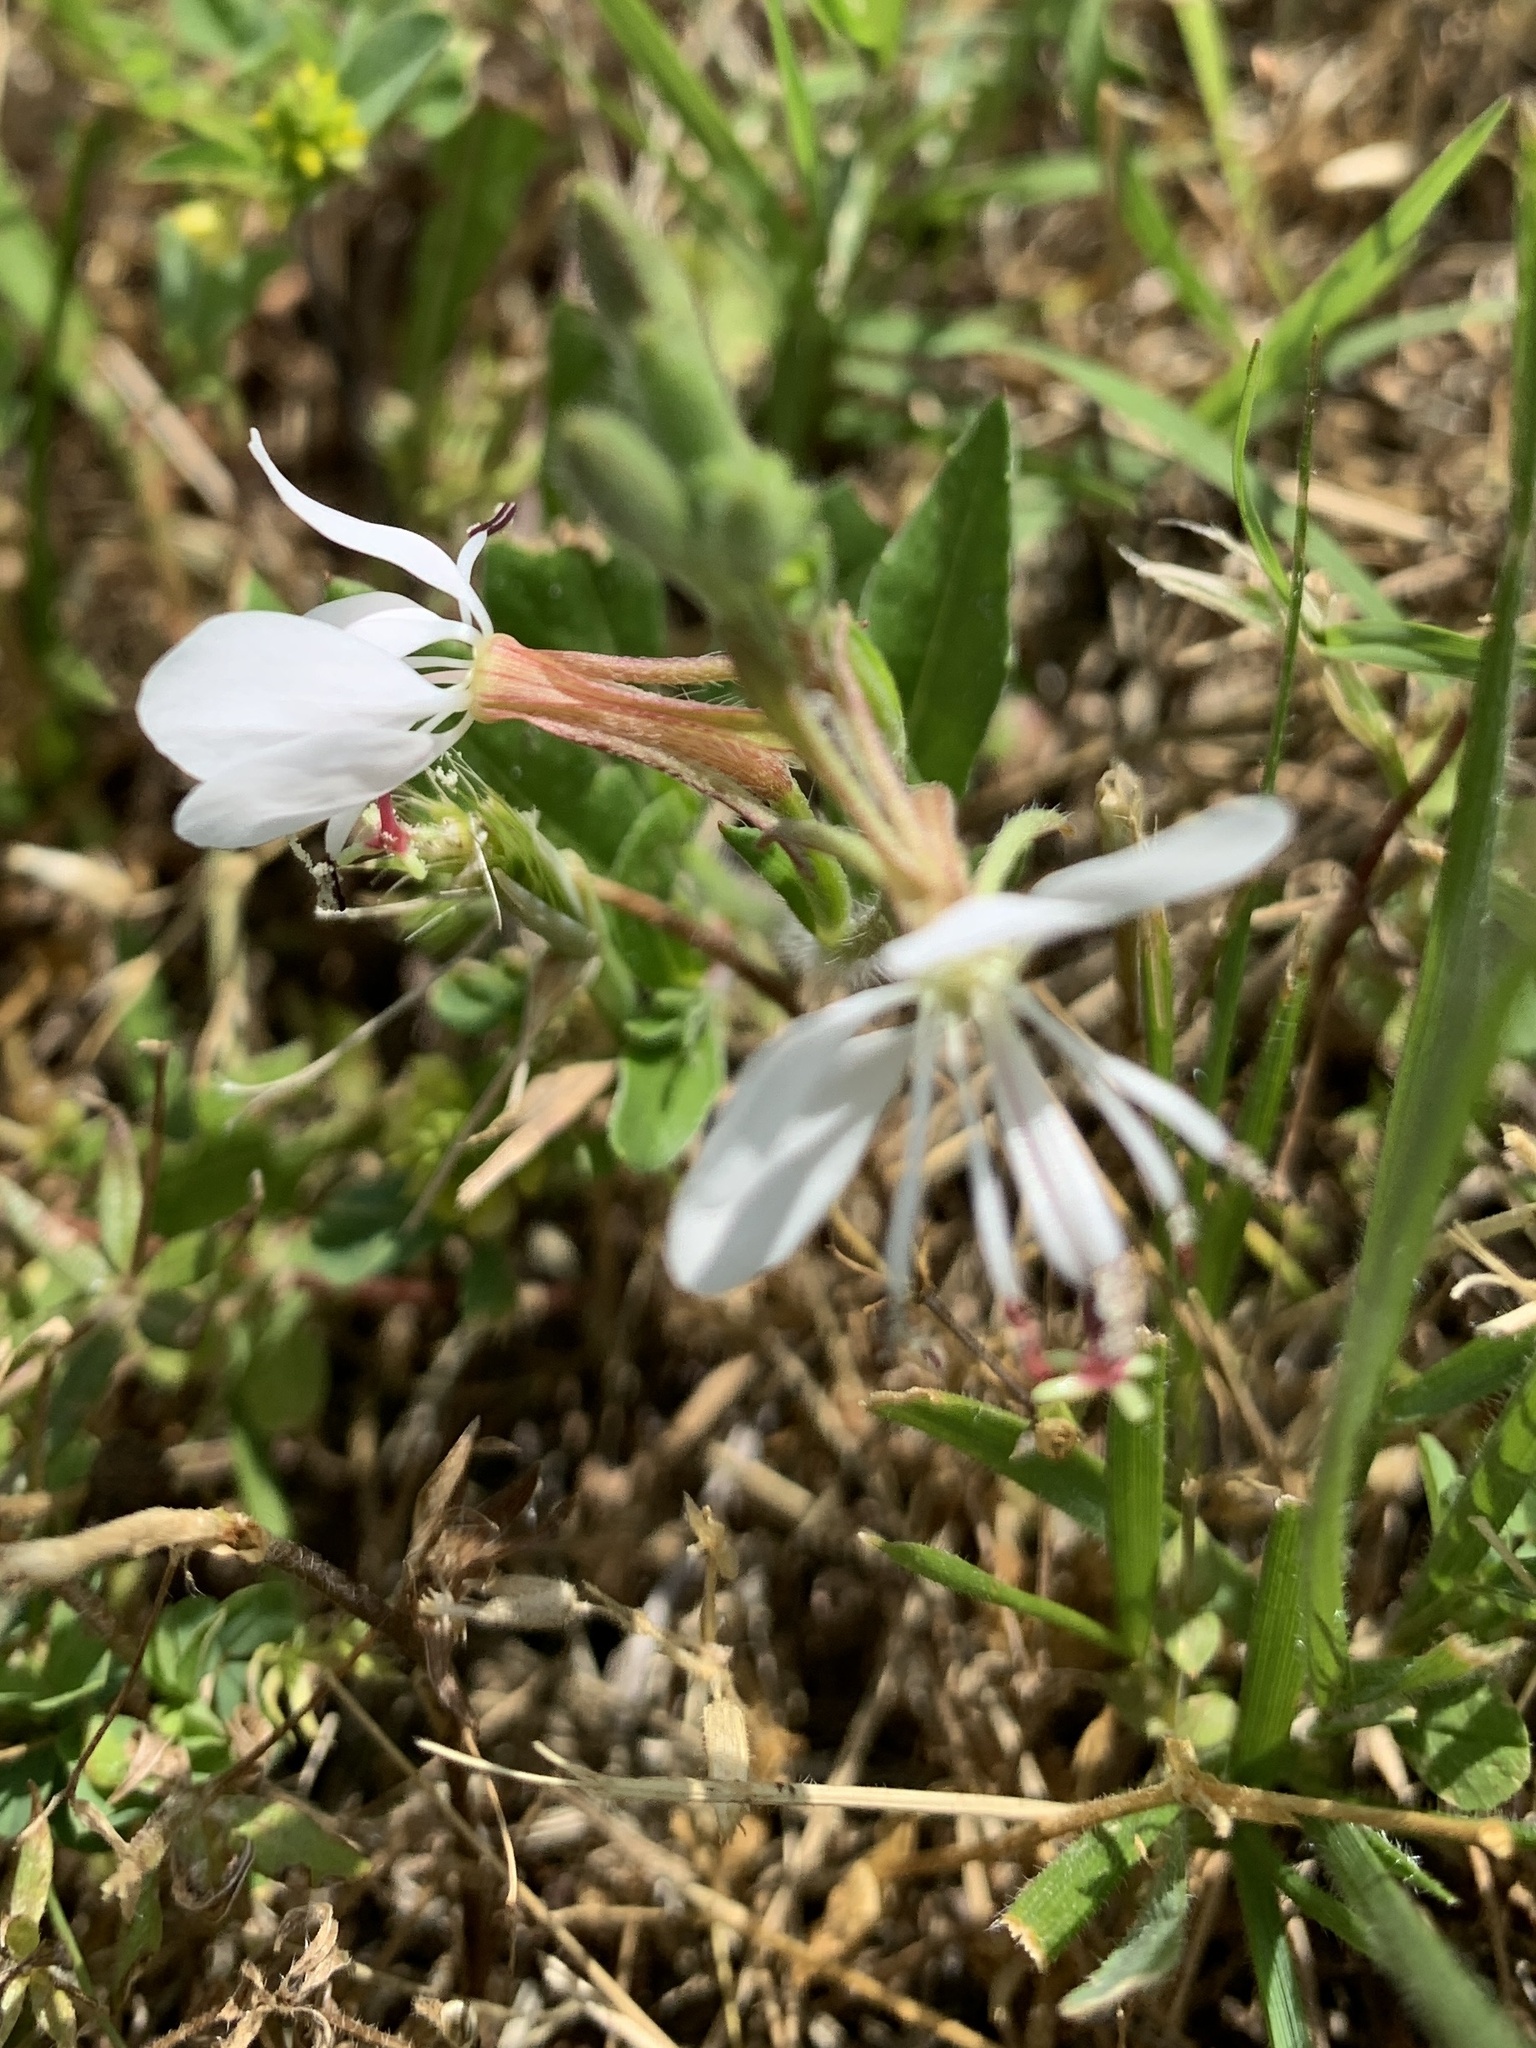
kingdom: Plantae
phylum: Tracheophyta
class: Magnoliopsida
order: Myrtales
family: Onagraceae
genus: Oenothera
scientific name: Oenothera suffulta
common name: Kisses
